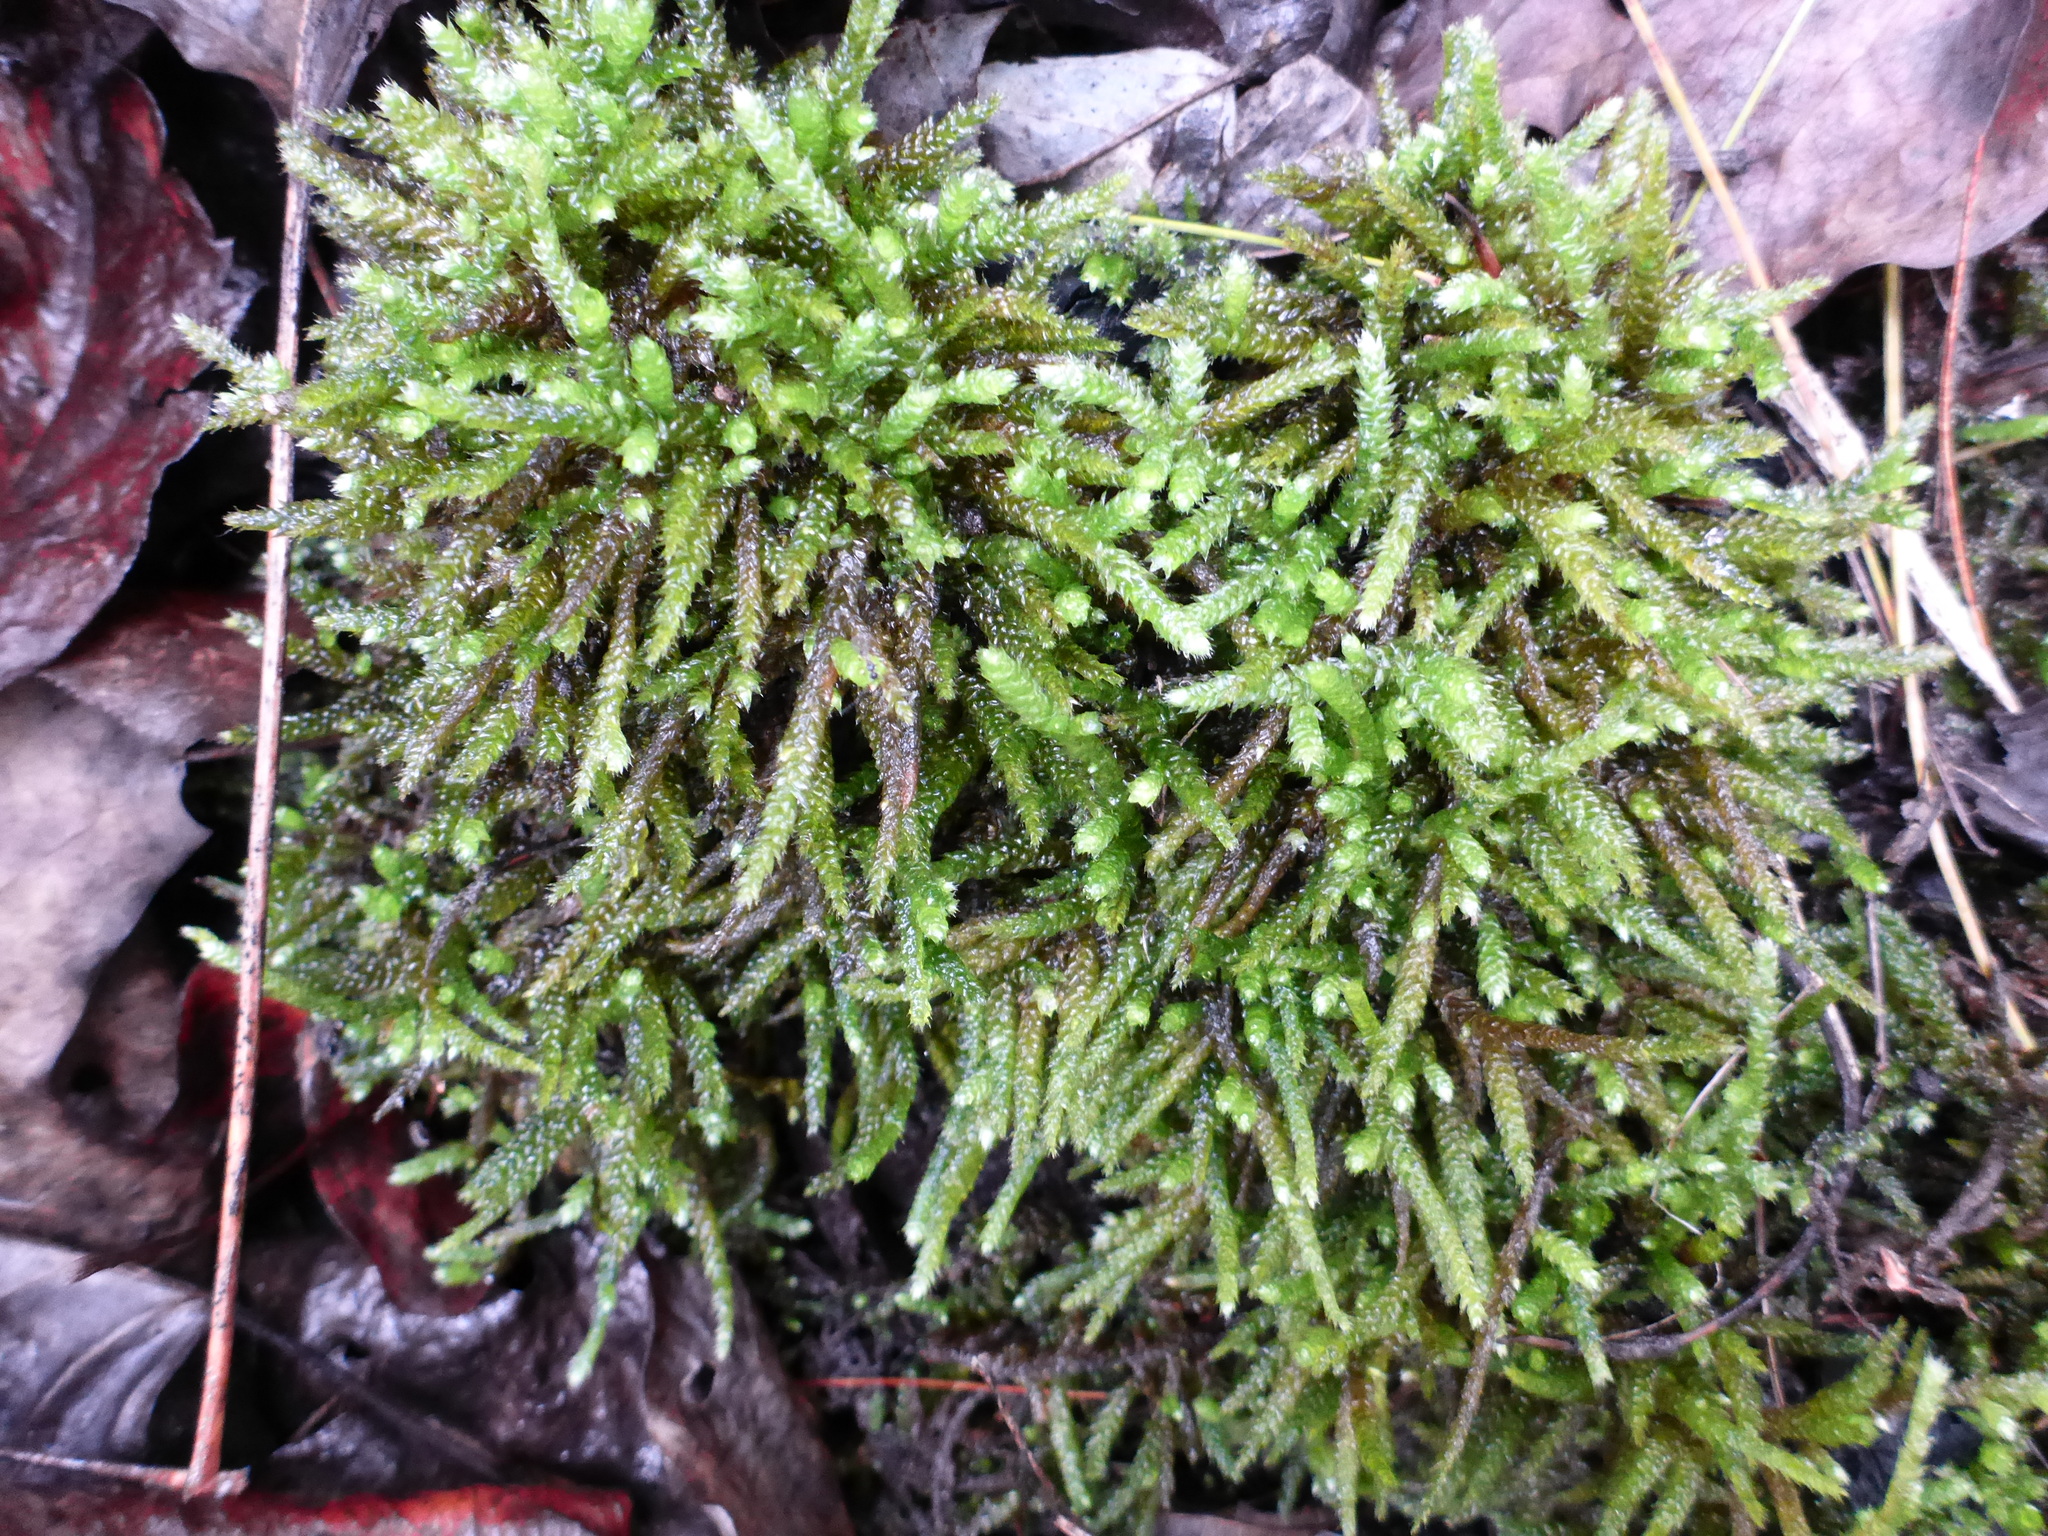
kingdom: Plantae
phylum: Bryophyta
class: Bryopsida
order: Hypnales
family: Entodontaceae
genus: Entodon
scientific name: Entodon seductrix
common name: Round-stemmed entodon moss
